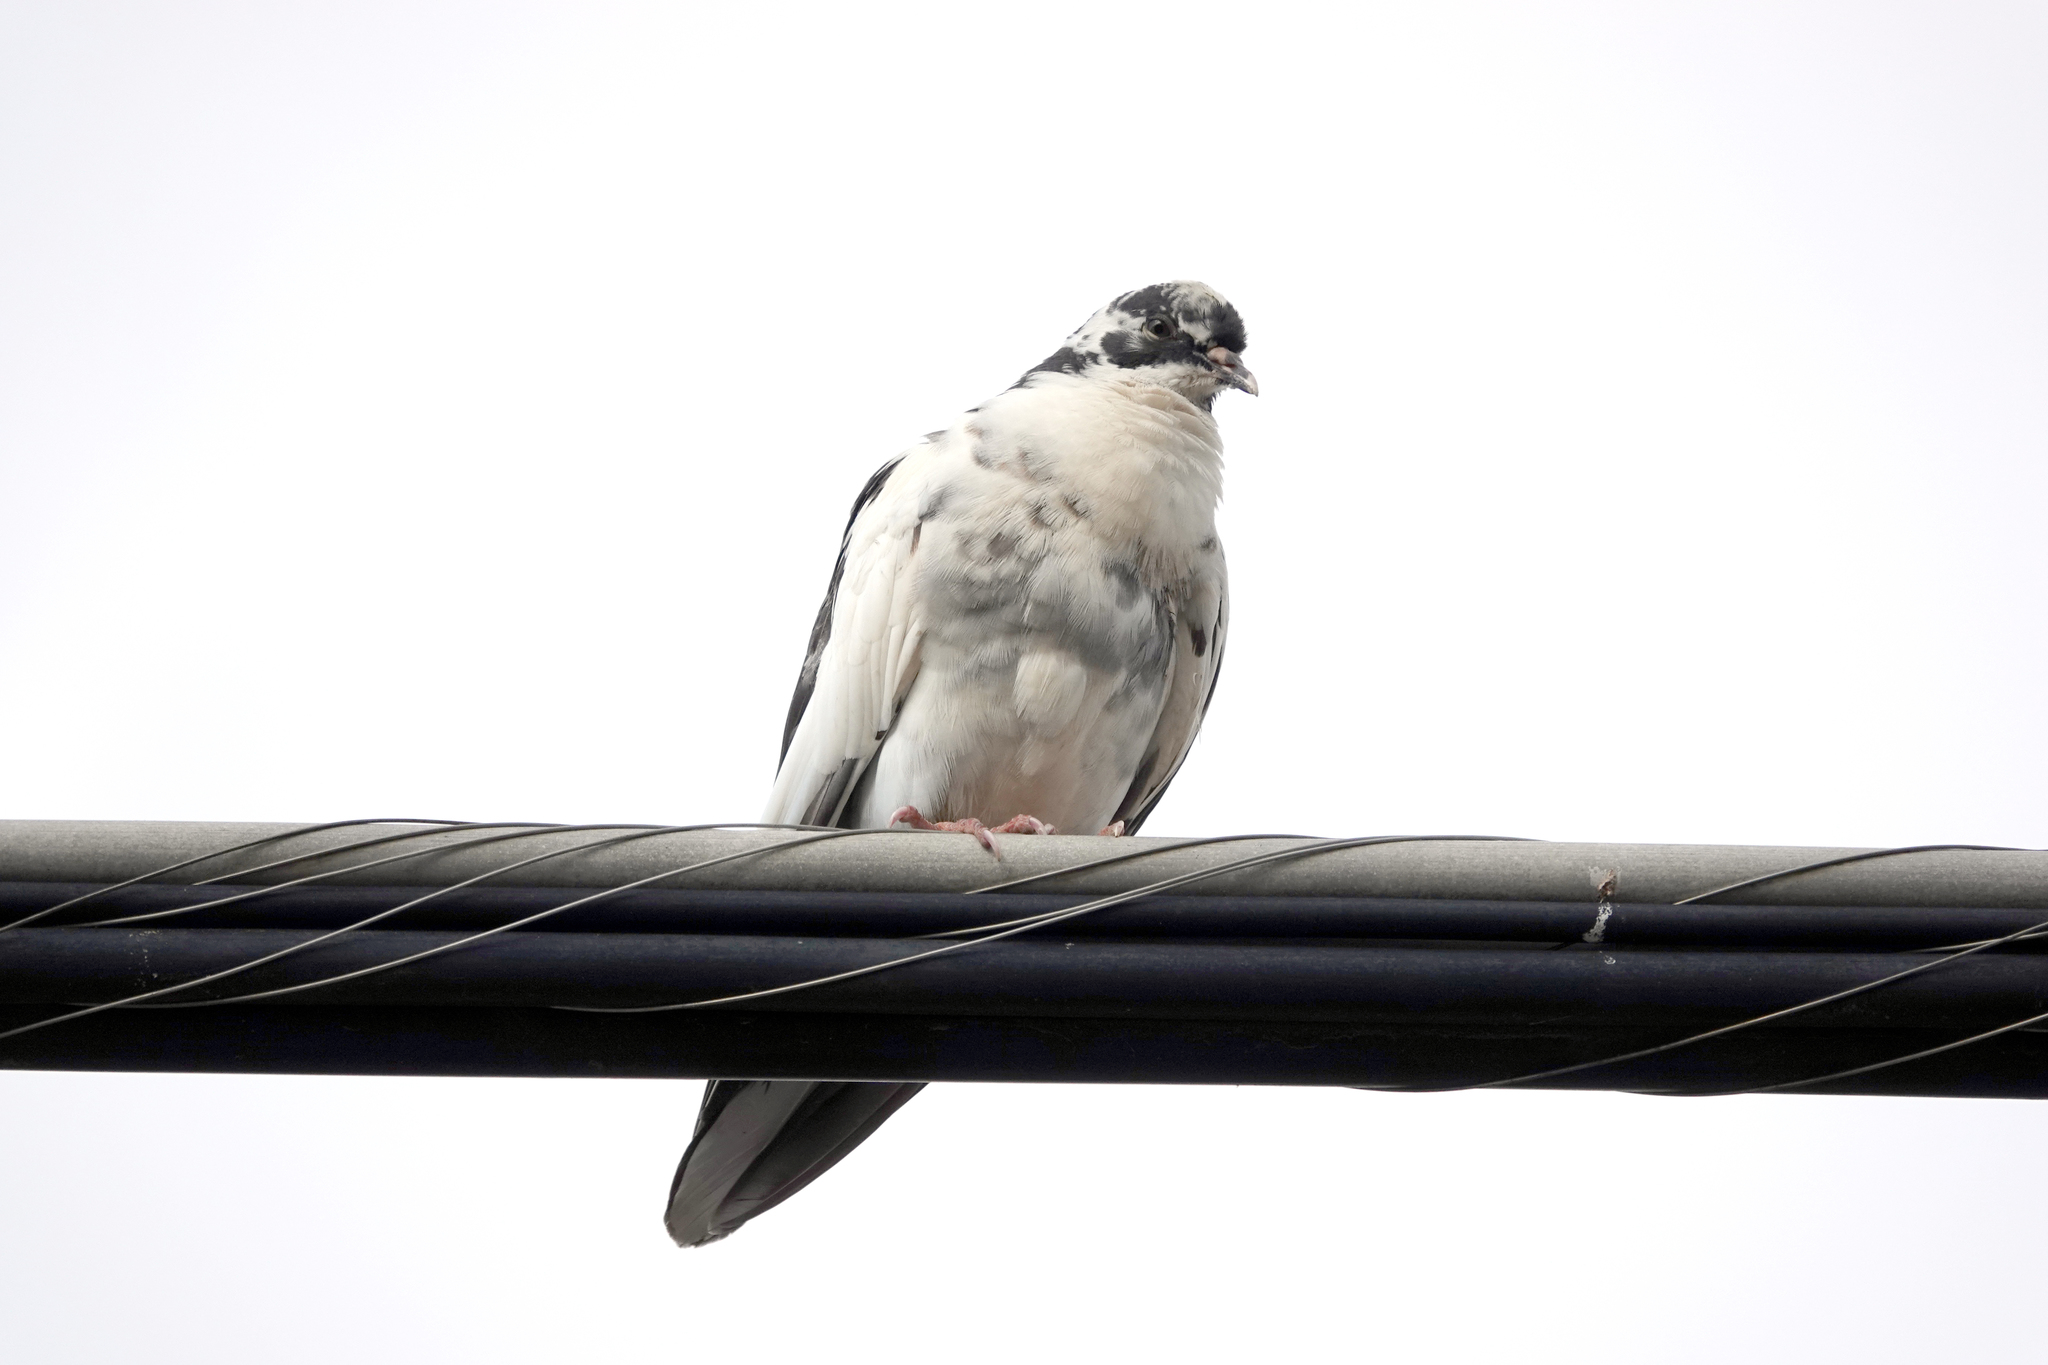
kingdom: Animalia
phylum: Chordata
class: Aves
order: Columbiformes
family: Columbidae
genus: Columba
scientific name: Columba livia
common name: Rock pigeon
